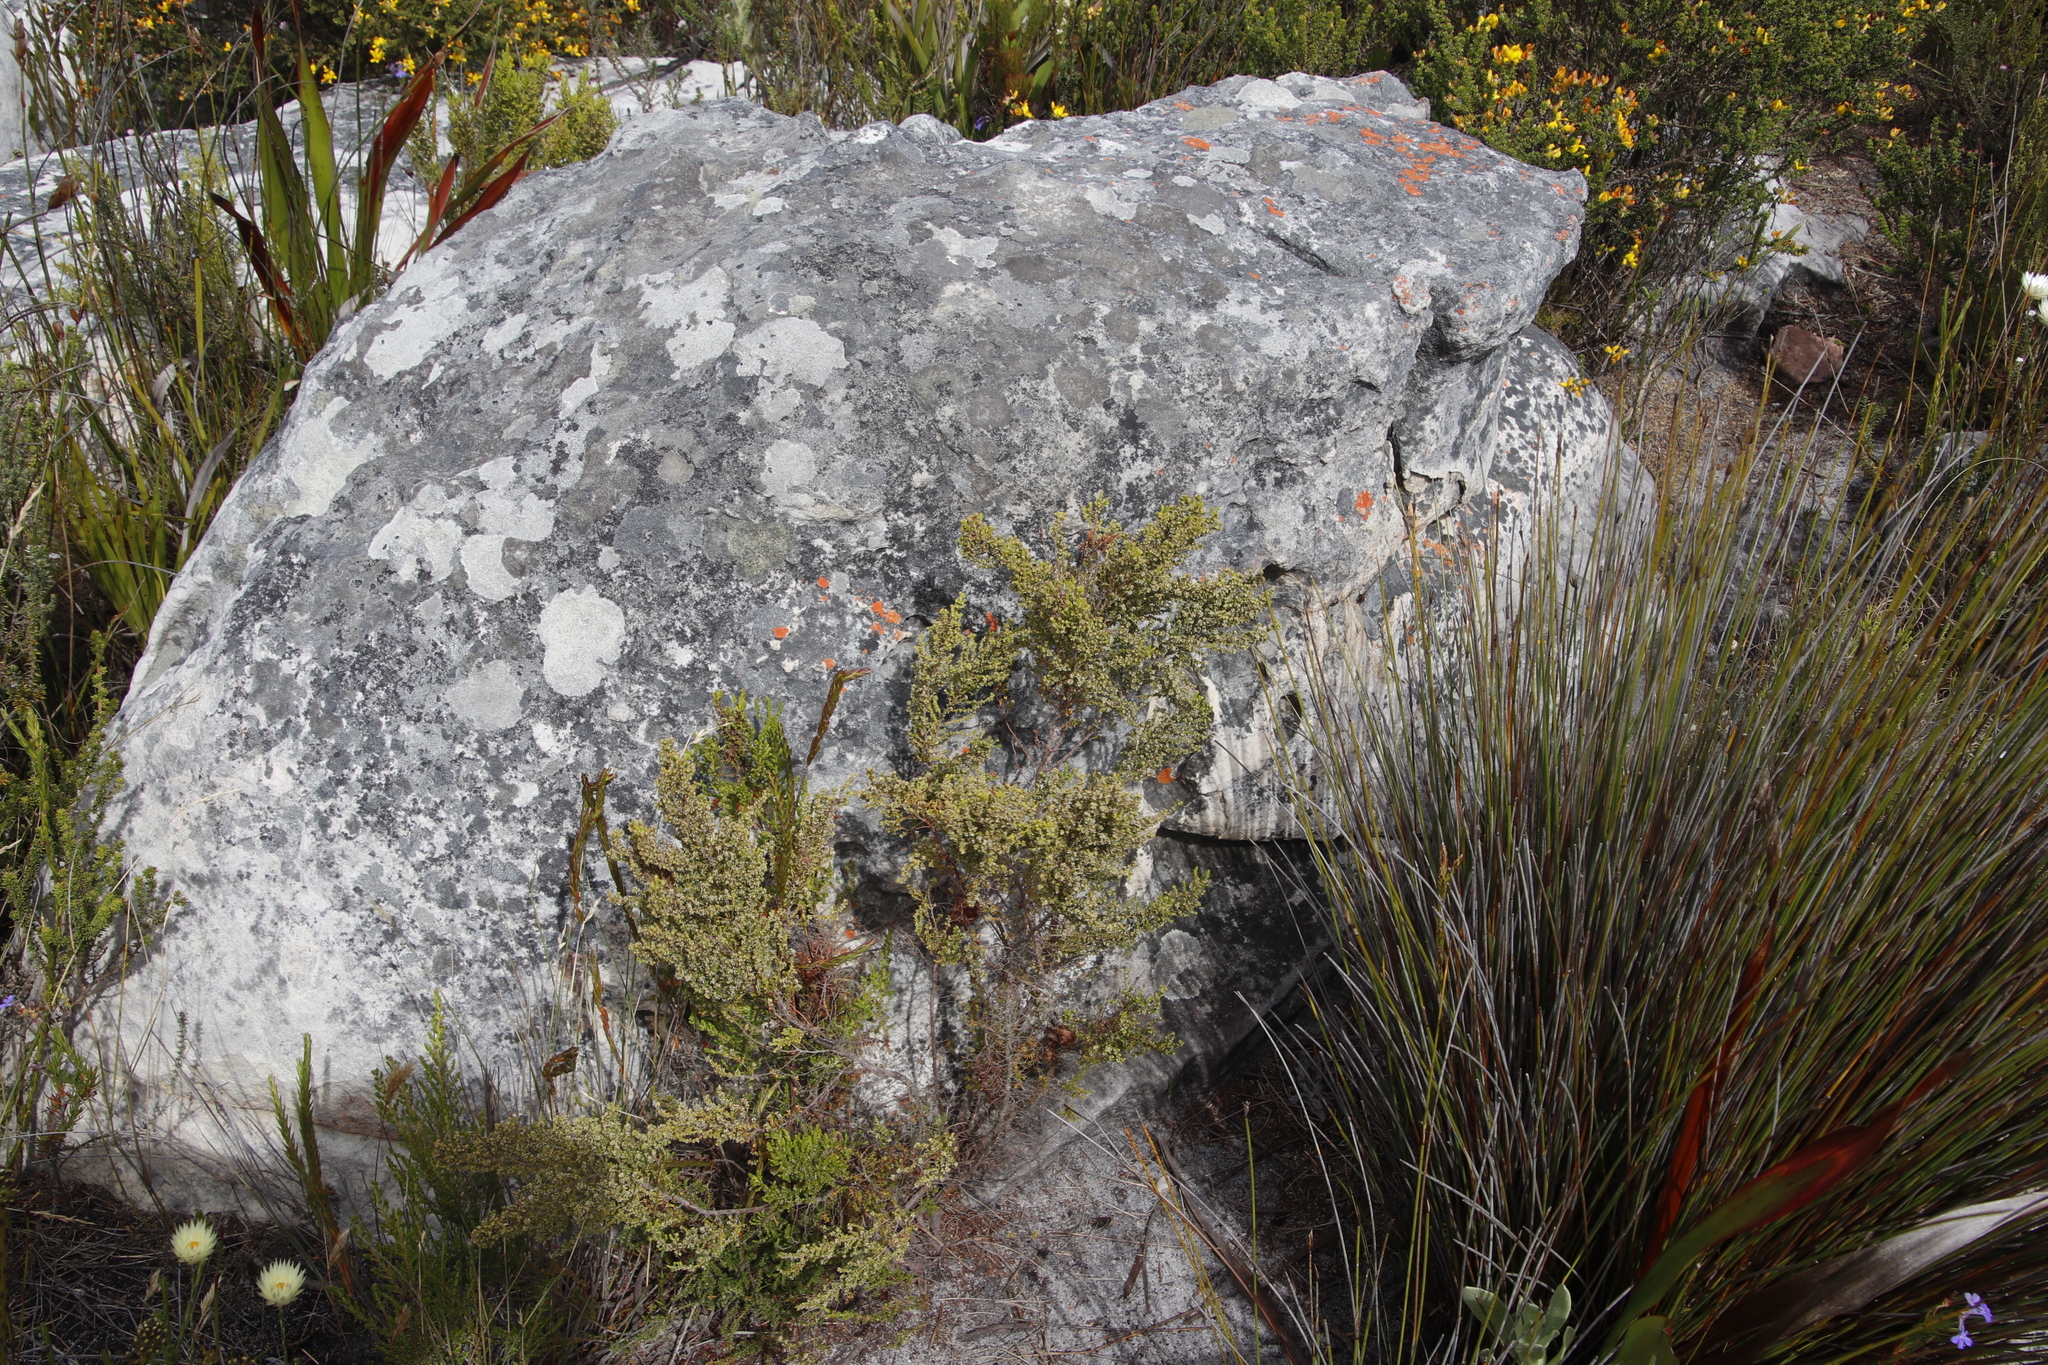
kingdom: Plantae
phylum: Tracheophyta
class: Magnoliopsida
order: Ericales
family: Ericaceae
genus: Erica
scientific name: Erica muscosa
